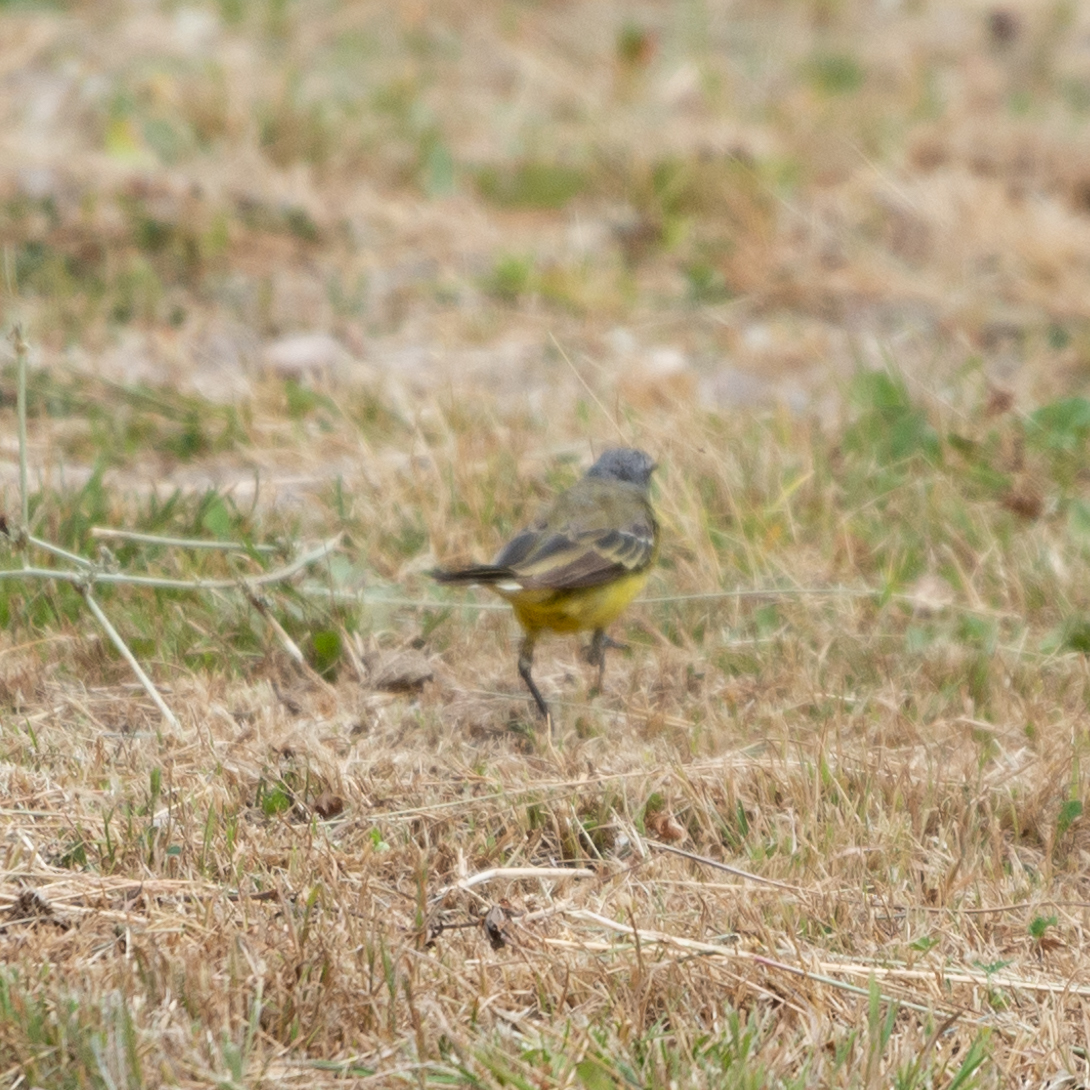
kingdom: Animalia
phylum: Chordata
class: Aves
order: Passeriformes
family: Motacillidae
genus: Motacilla
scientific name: Motacilla flava
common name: Western yellow wagtail
